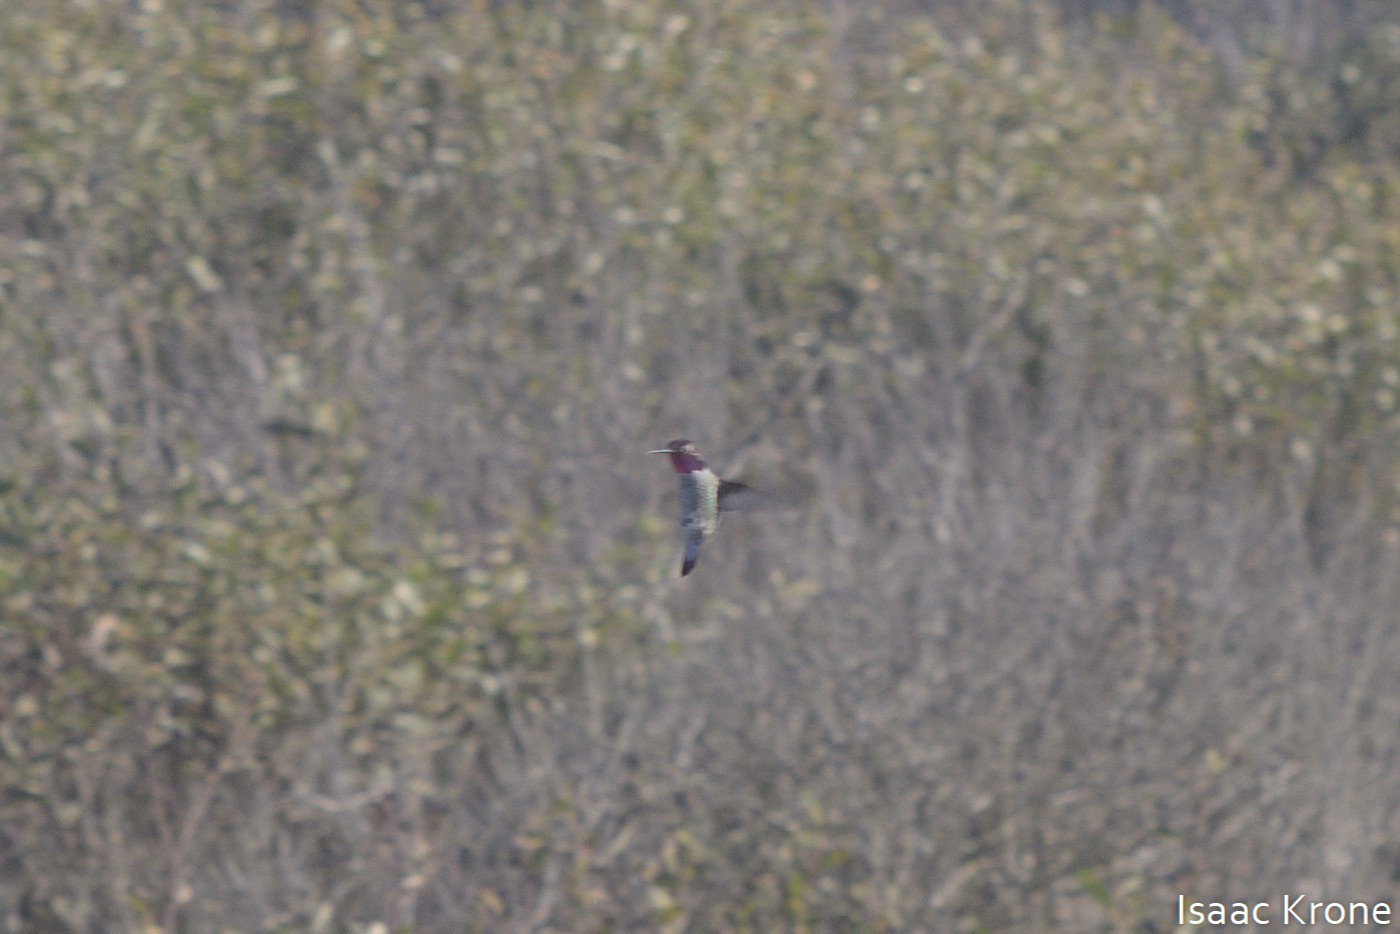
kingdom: Animalia
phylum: Chordata
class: Aves
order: Apodiformes
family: Trochilidae
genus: Calypte
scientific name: Calypte anna
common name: Anna's hummingbird
